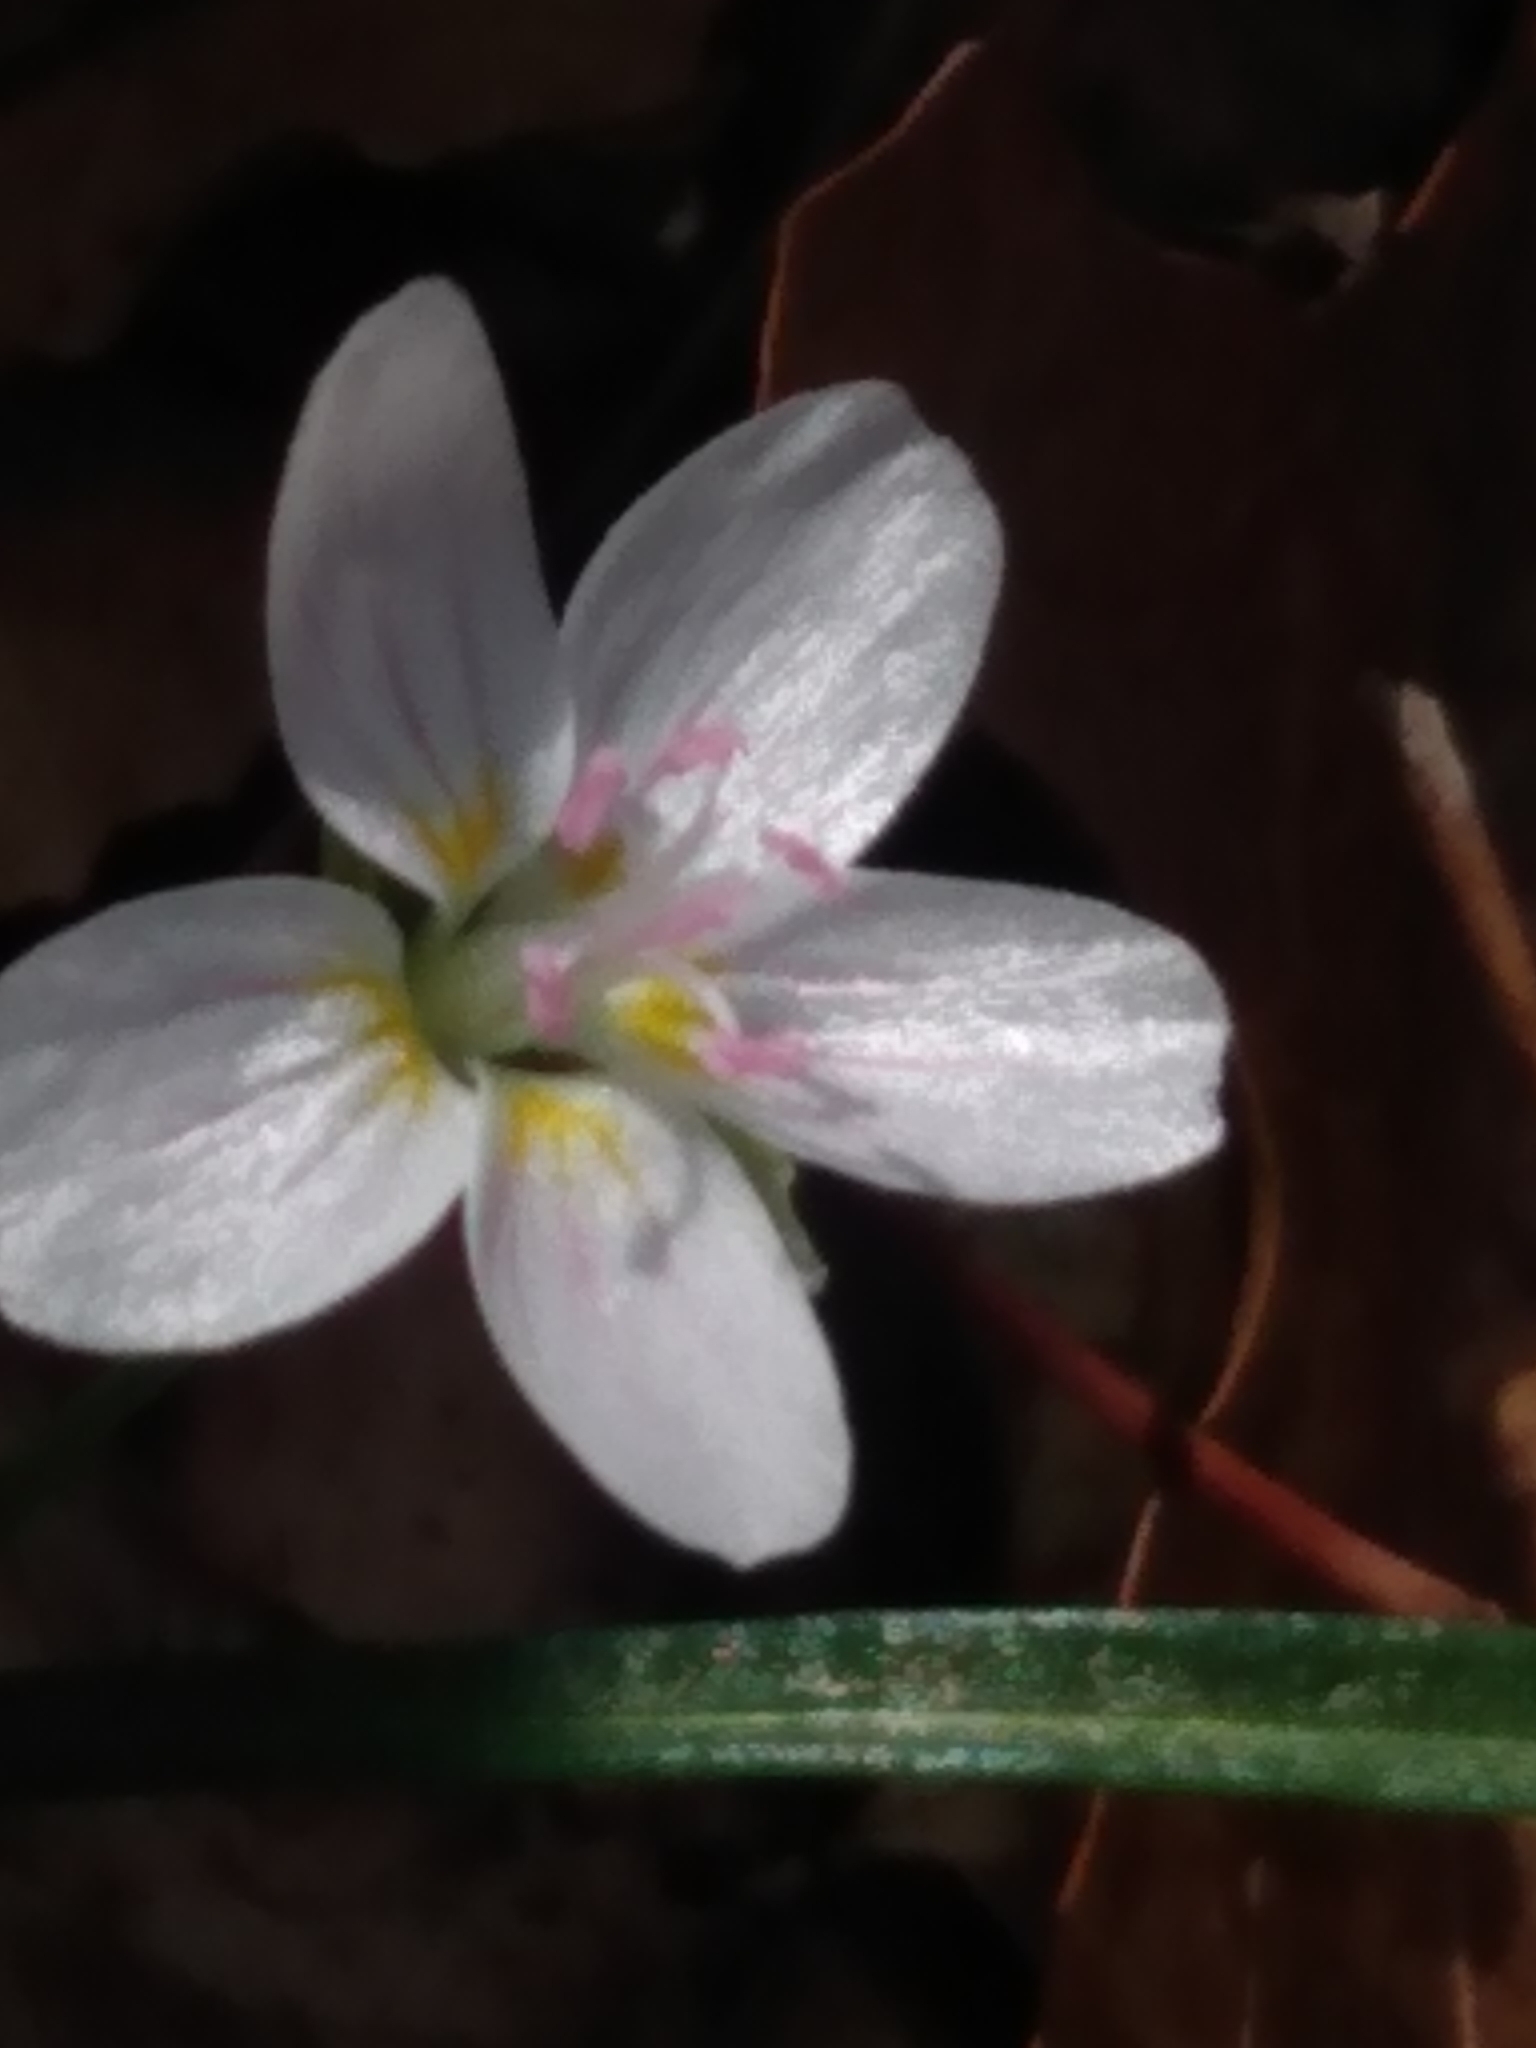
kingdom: Plantae
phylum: Tracheophyta
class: Magnoliopsida
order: Caryophyllales
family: Montiaceae
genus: Claytonia
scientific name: Claytonia virginica
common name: Virginia springbeauty
